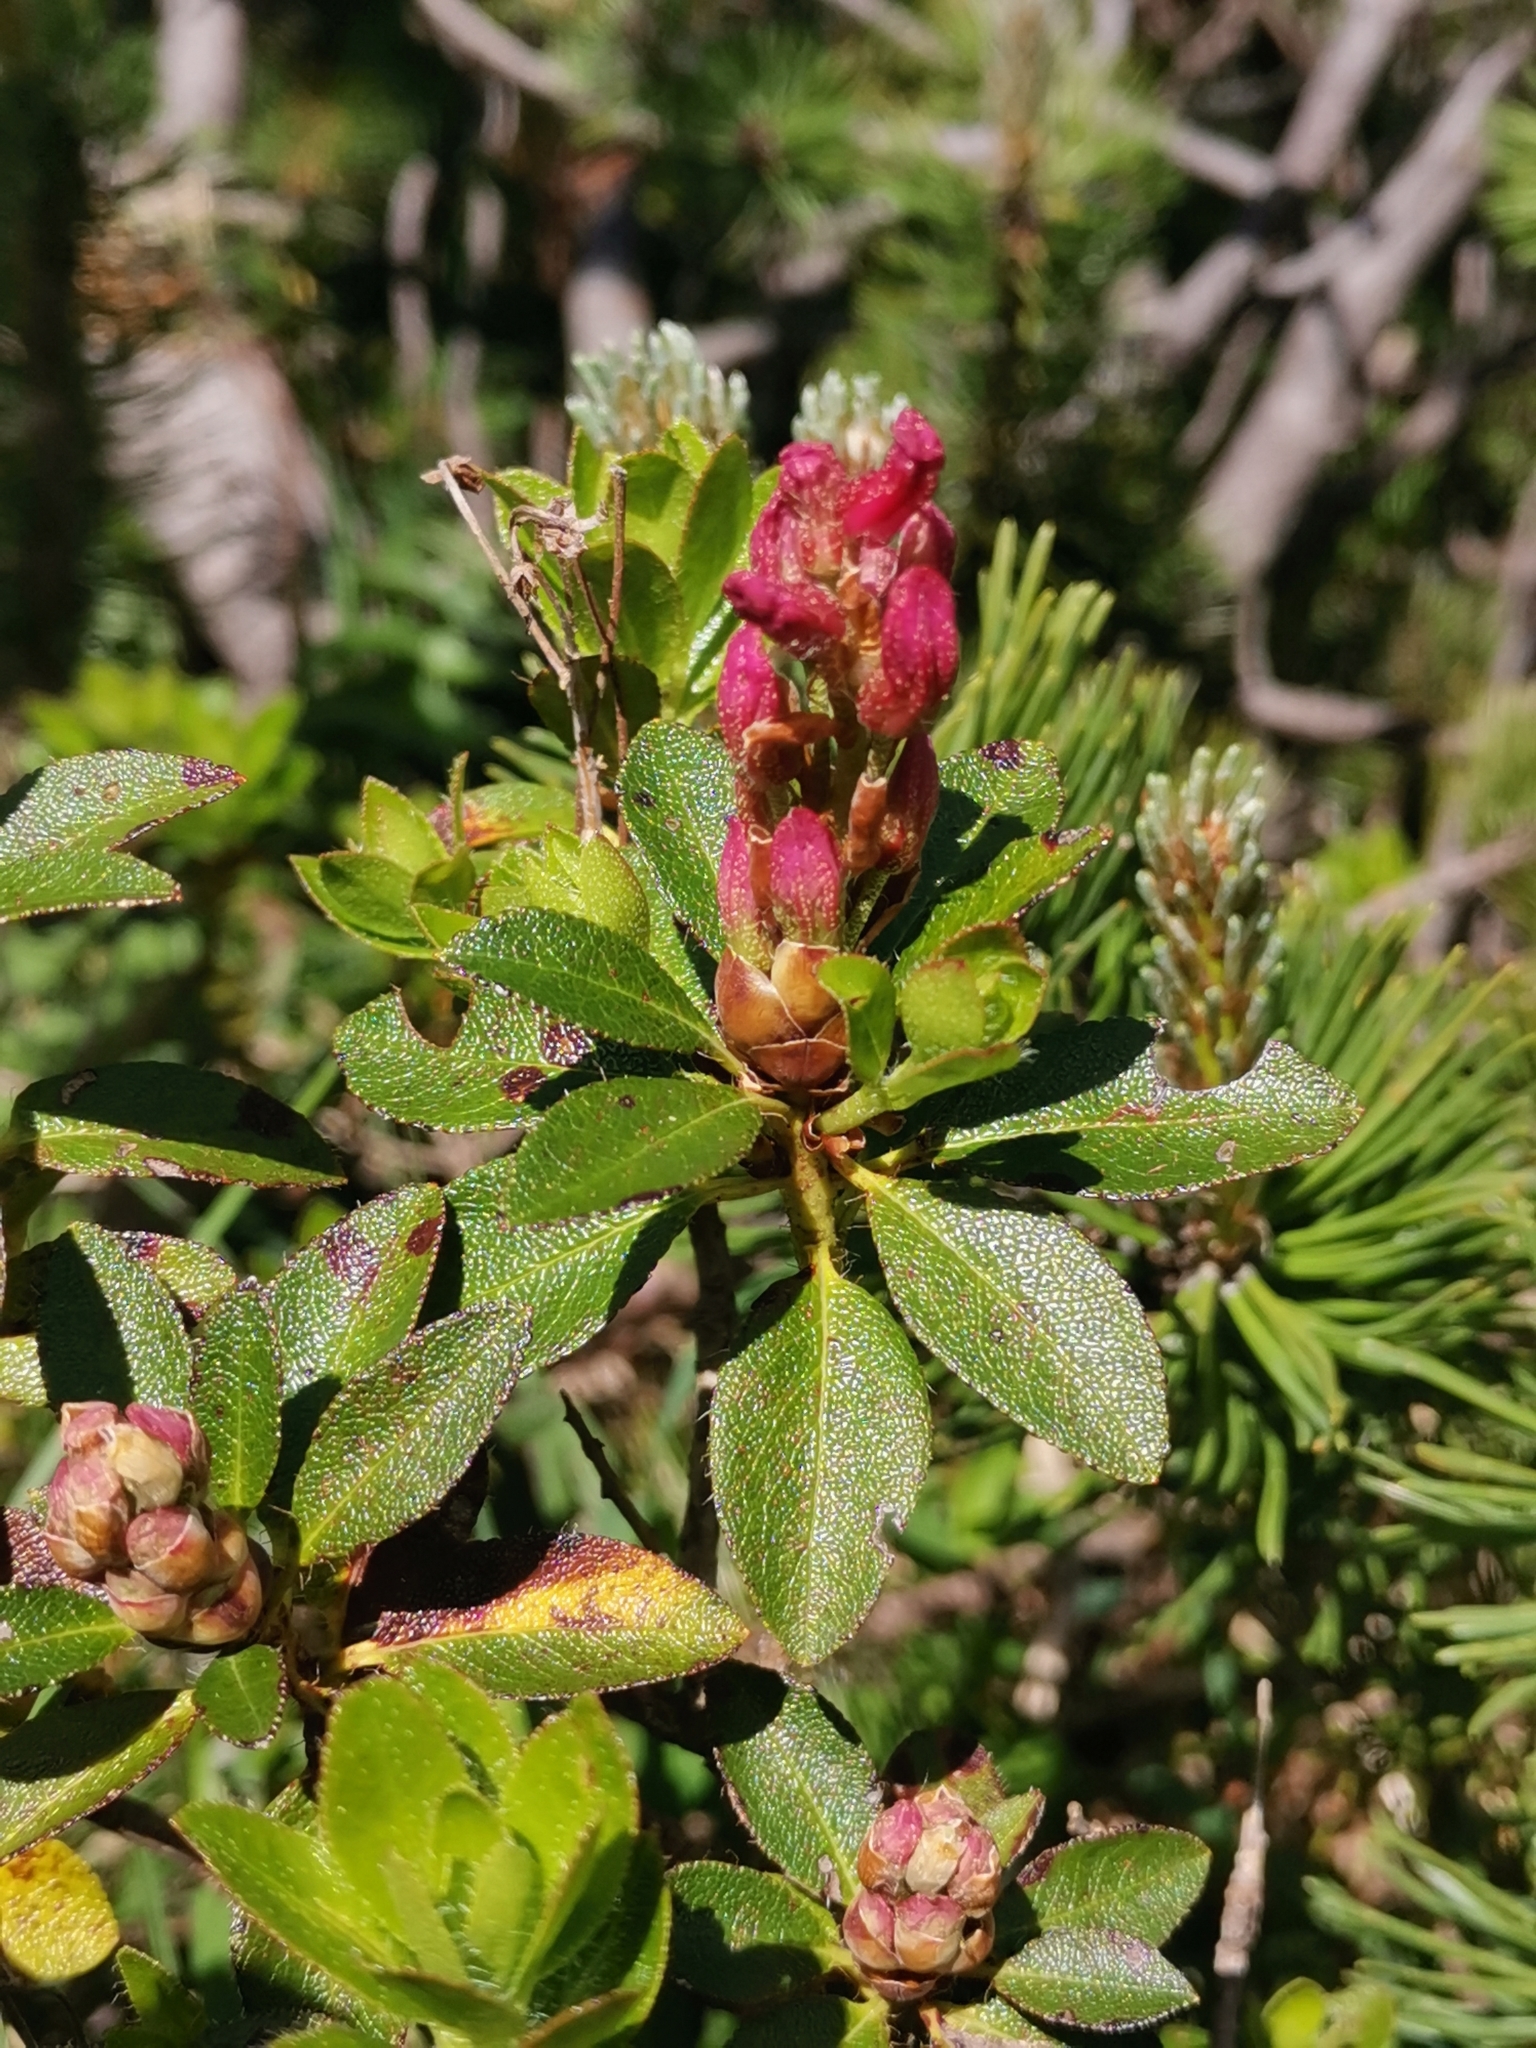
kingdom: Plantae
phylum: Tracheophyta
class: Magnoliopsida
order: Ericales
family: Ericaceae
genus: Rhododendron
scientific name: Rhododendron hirsutum
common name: Hairy alpenrose
